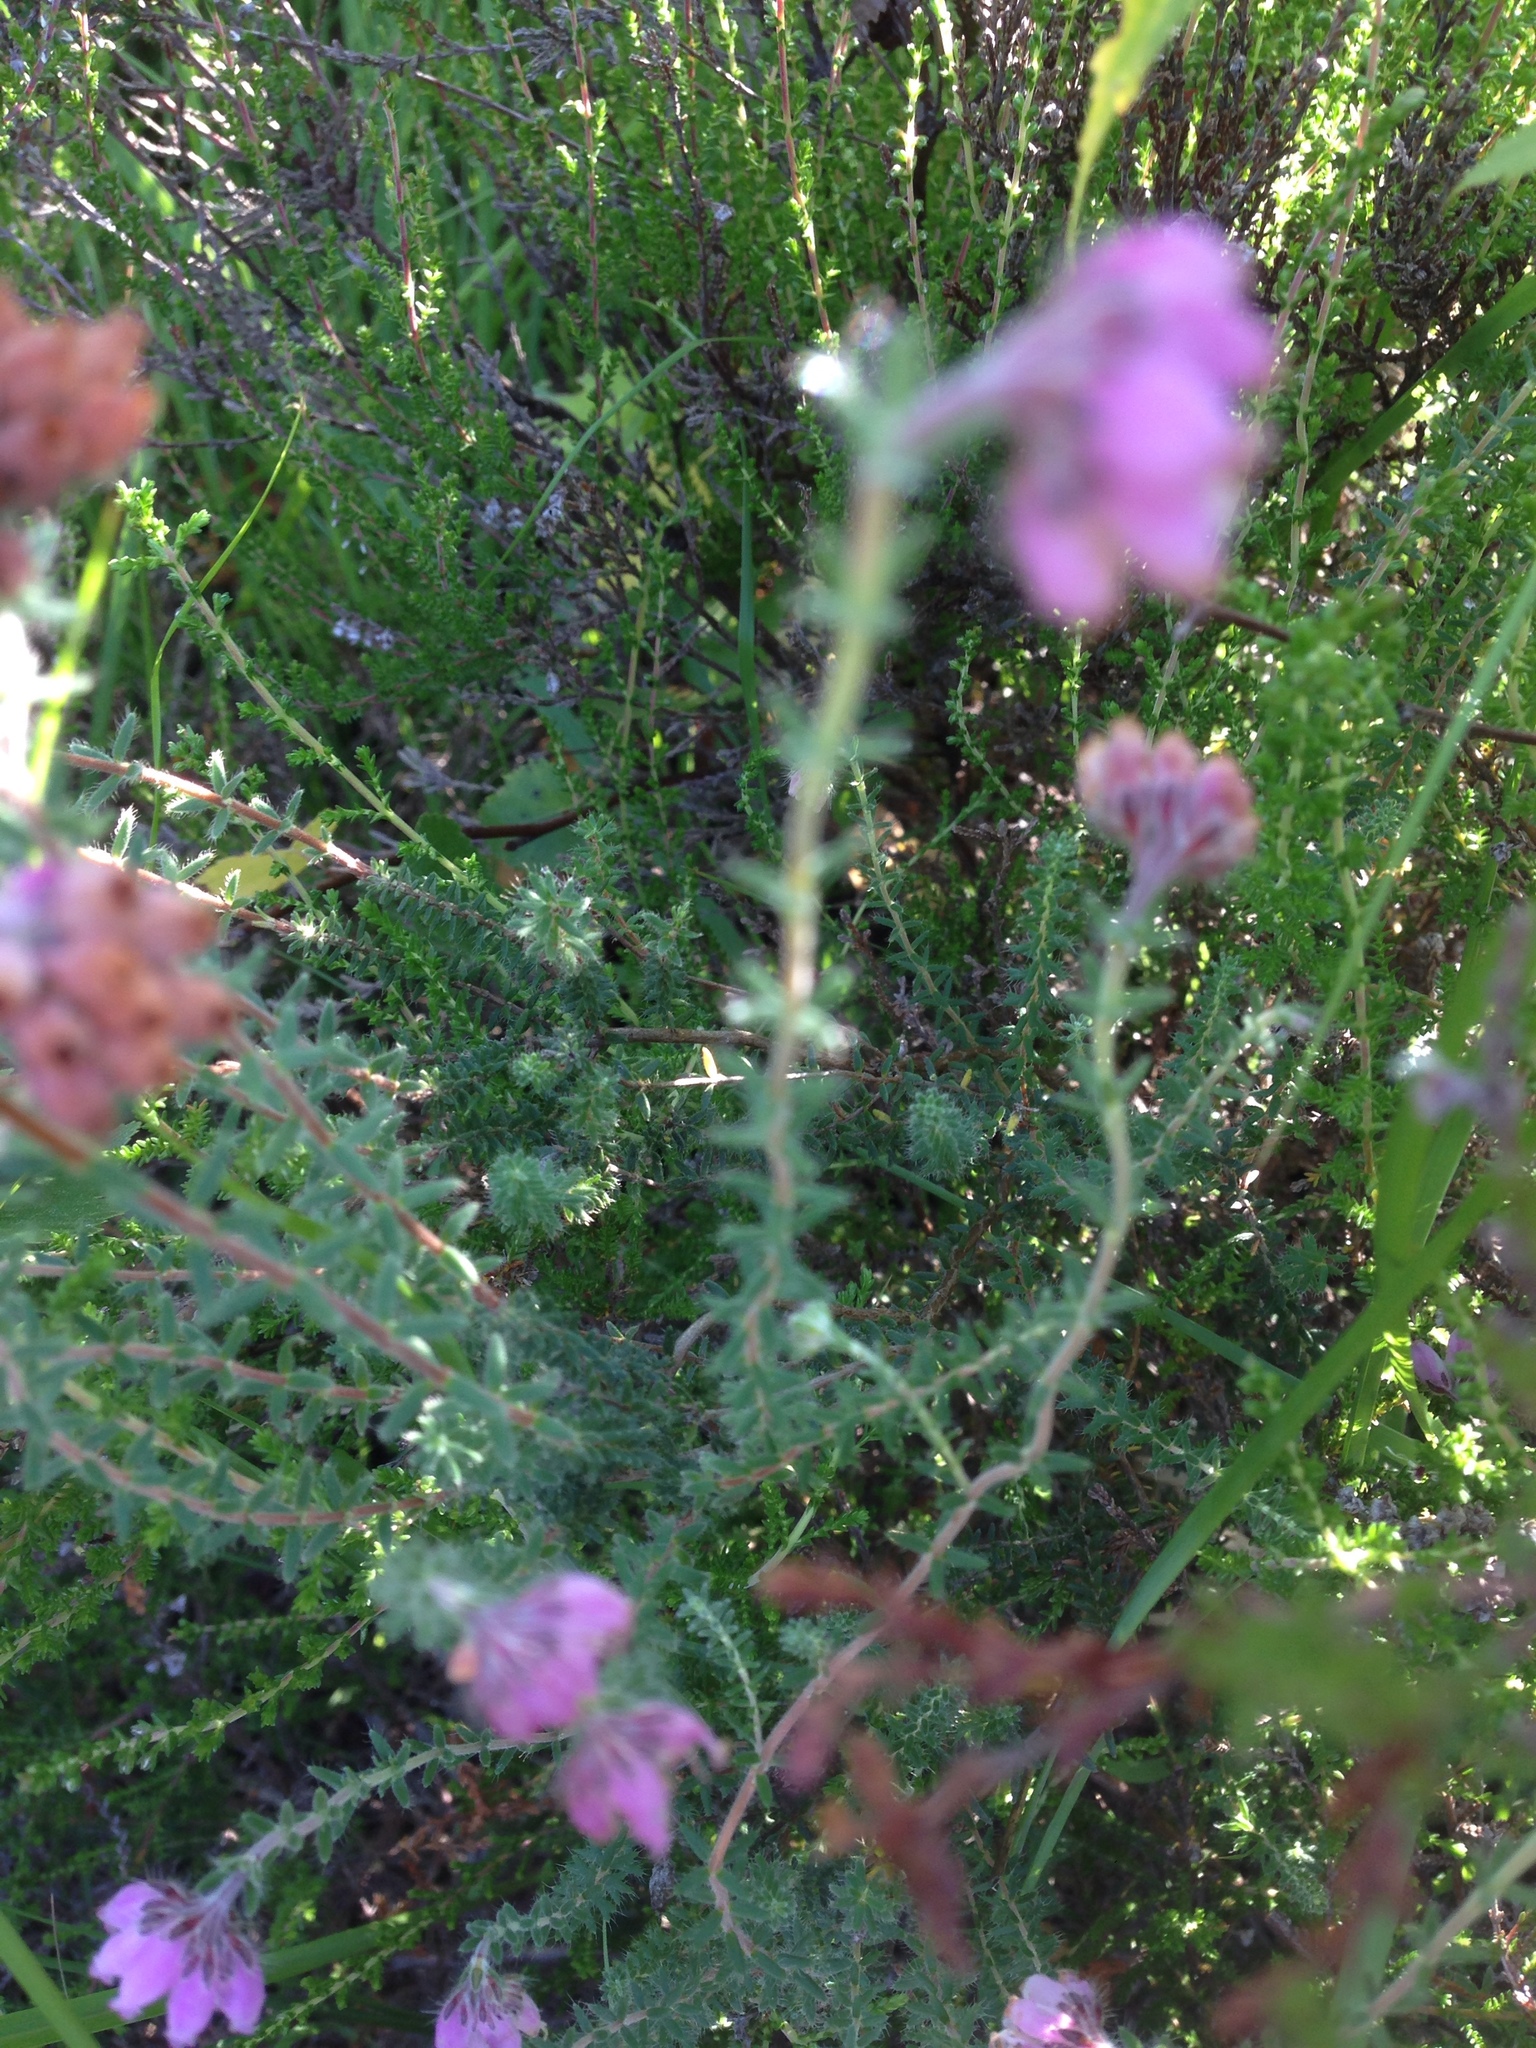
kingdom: Plantae
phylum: Tracheophyta
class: Magnoliopsida
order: Ericales
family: Ericaceae
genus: Erica
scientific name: Erica tetralix
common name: Cross-leaved heath
